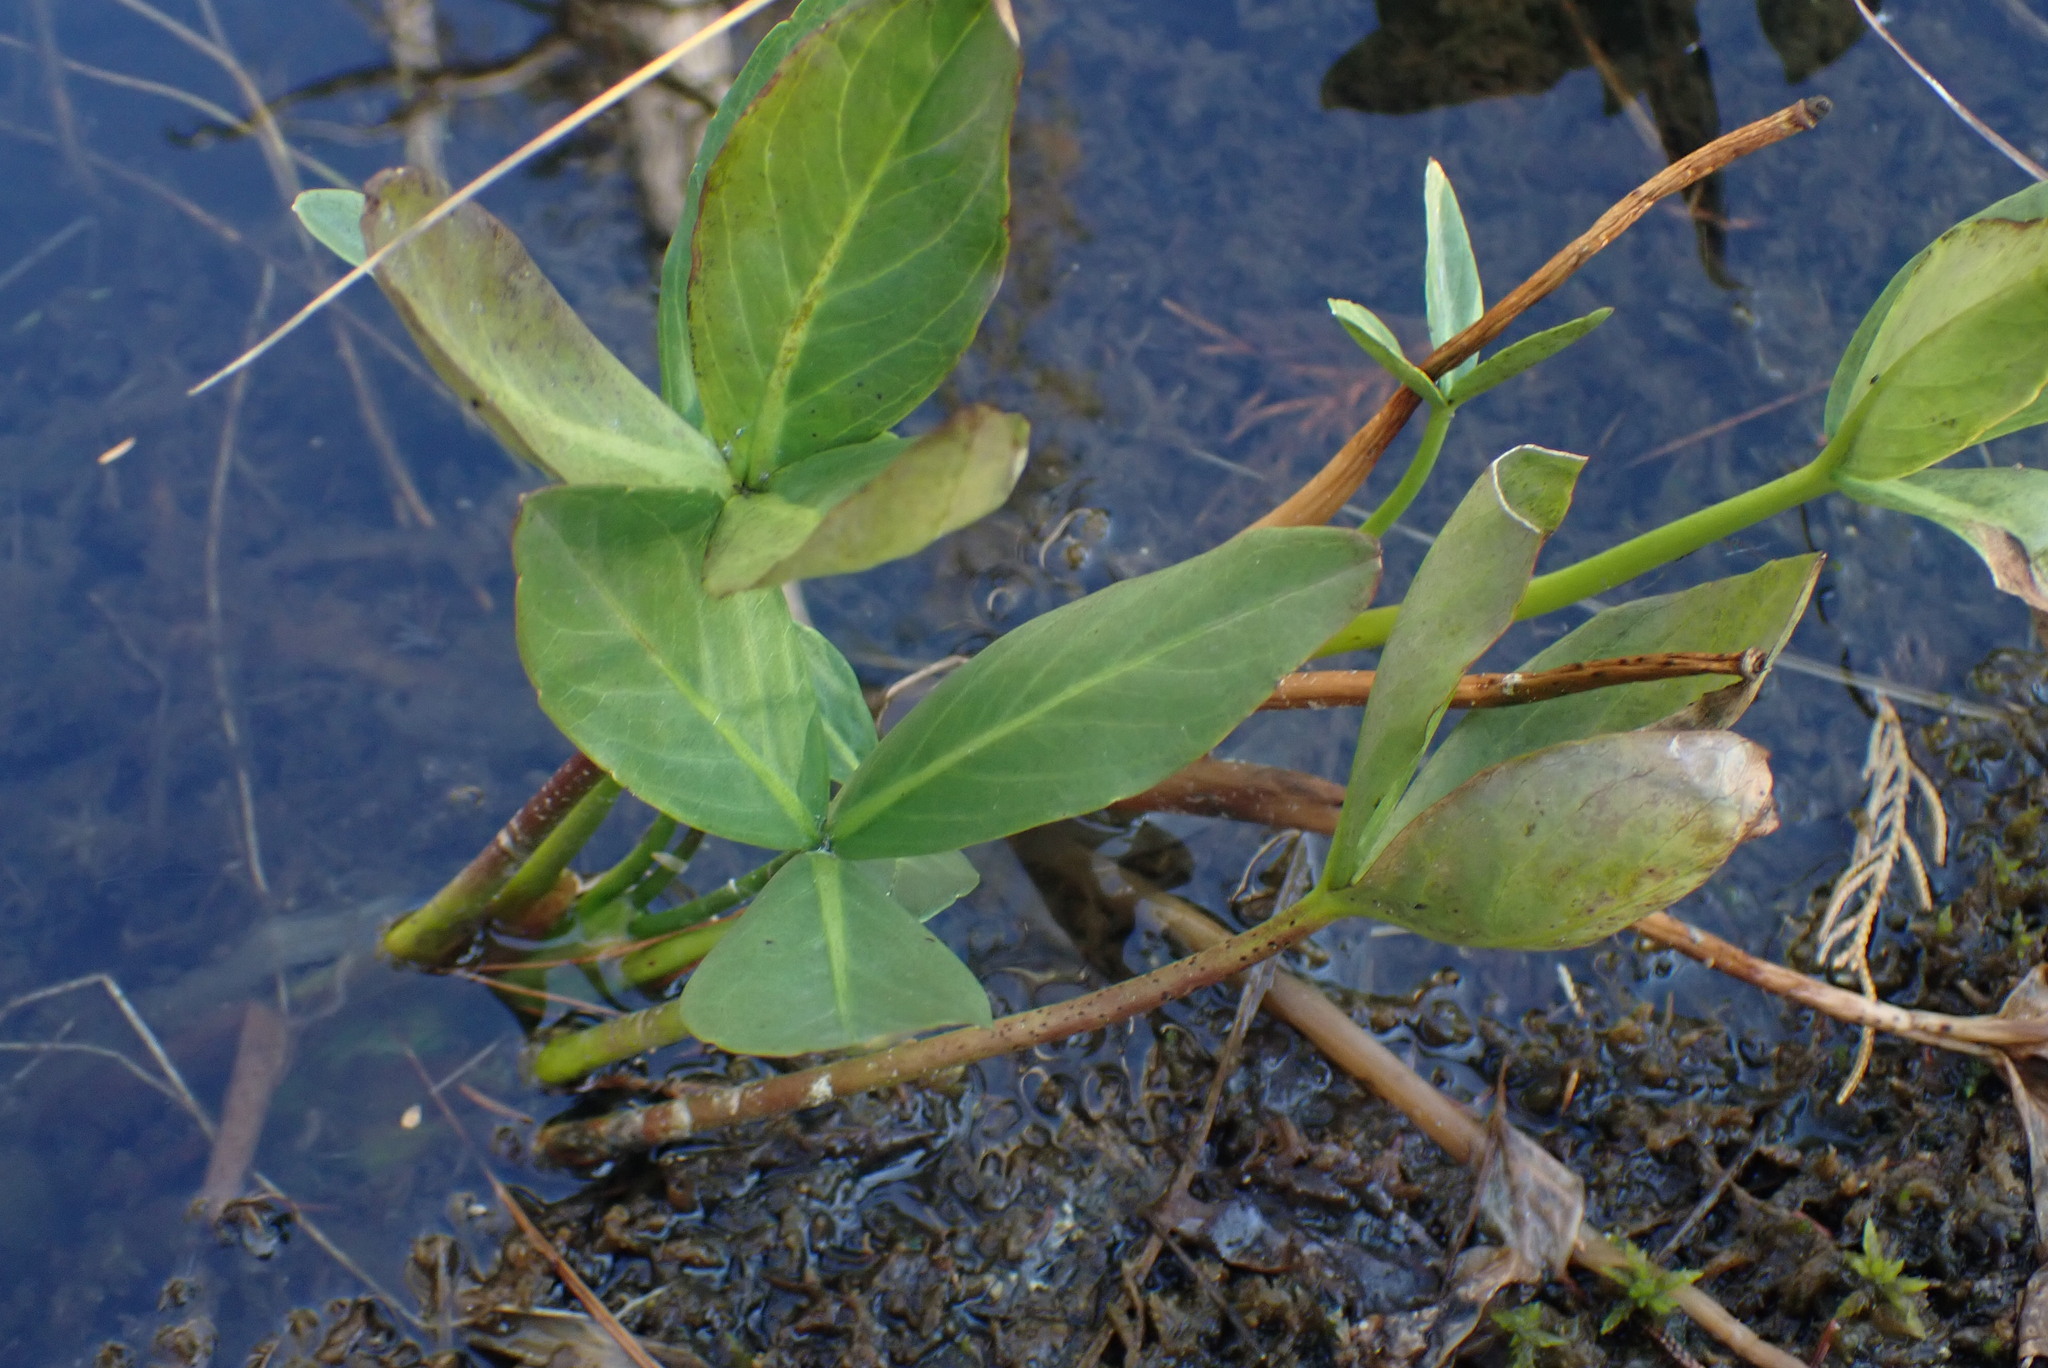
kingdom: Plantae
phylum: Tracheophyta
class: Magnoliopsida
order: Asterales
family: Menyanthaceae
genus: Menyanthes
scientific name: Menyanthes trifoliata
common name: Bogbean
